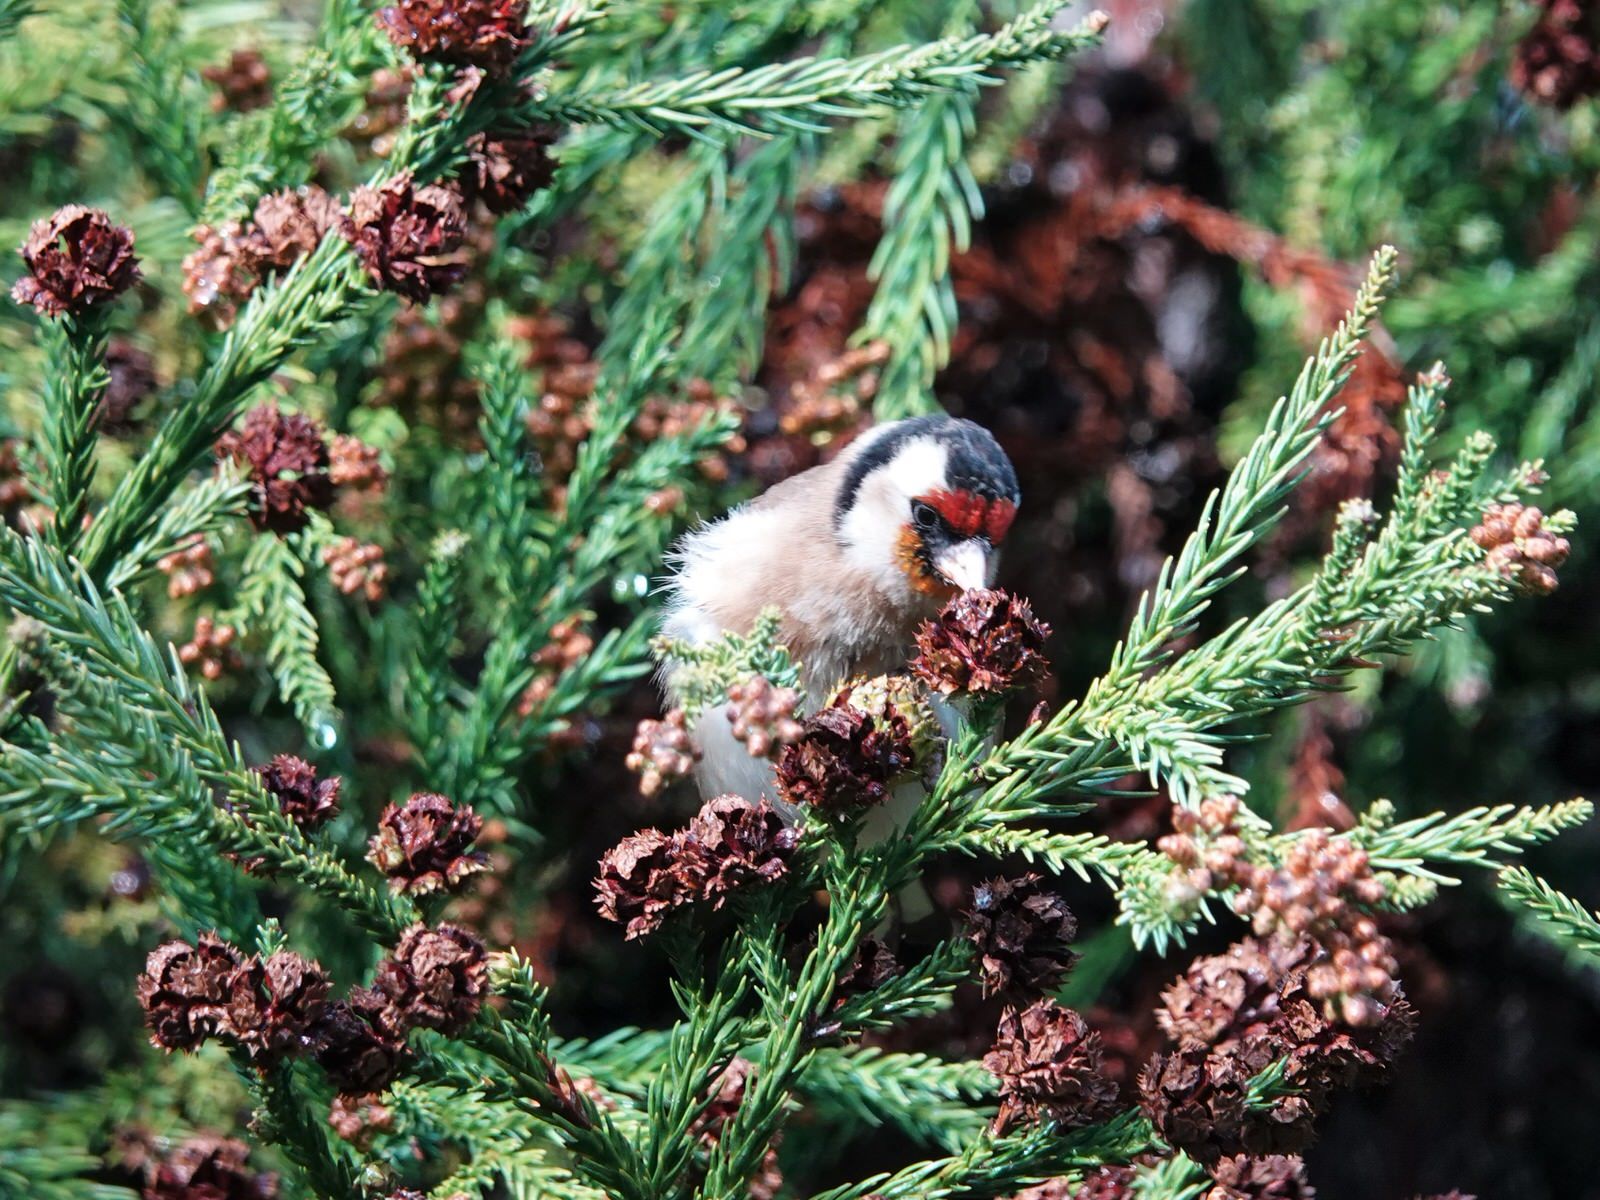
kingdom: Animalia
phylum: Chordata
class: Aves
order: Passeriformes
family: Fringillidae
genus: Carduelis
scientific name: Carduelis carduelis
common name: European goldfinch
